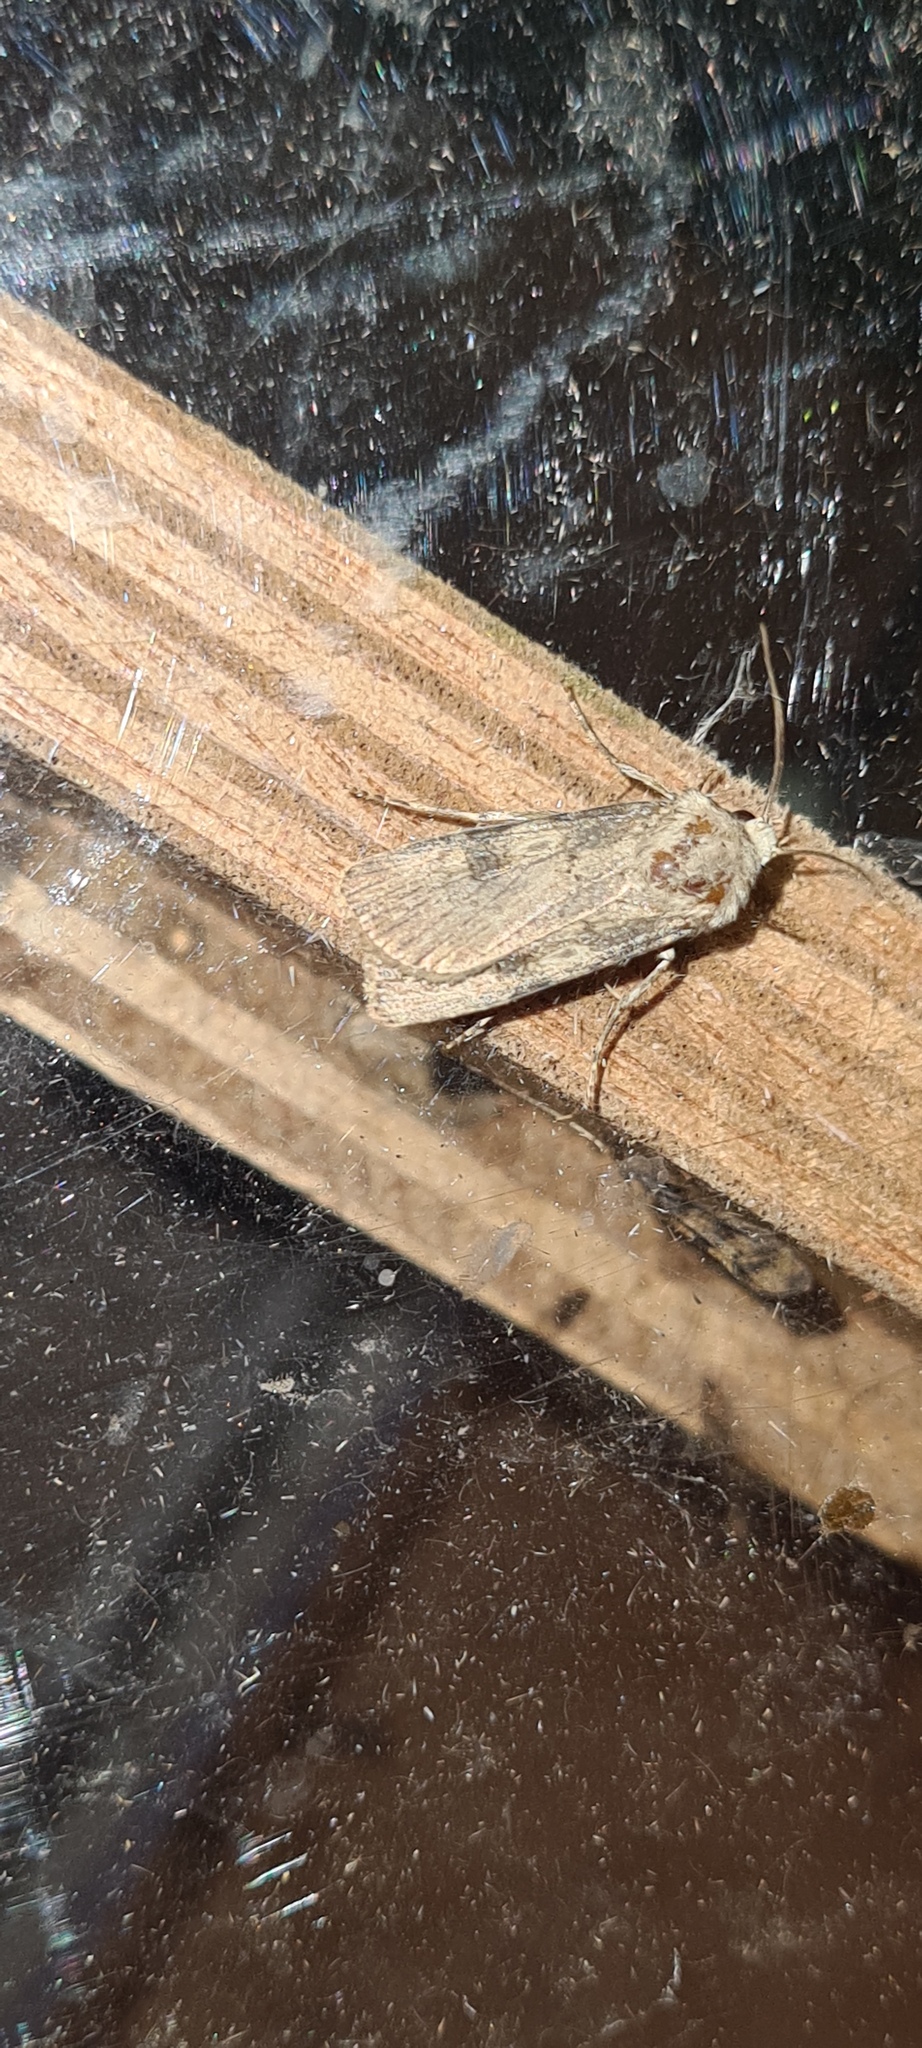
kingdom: Animalia
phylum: Arthropoda
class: Insecta
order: Lepidoptera
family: Noctuidae
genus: Agrotis
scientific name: Agrotis puta
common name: Shuttle-shaped dart
